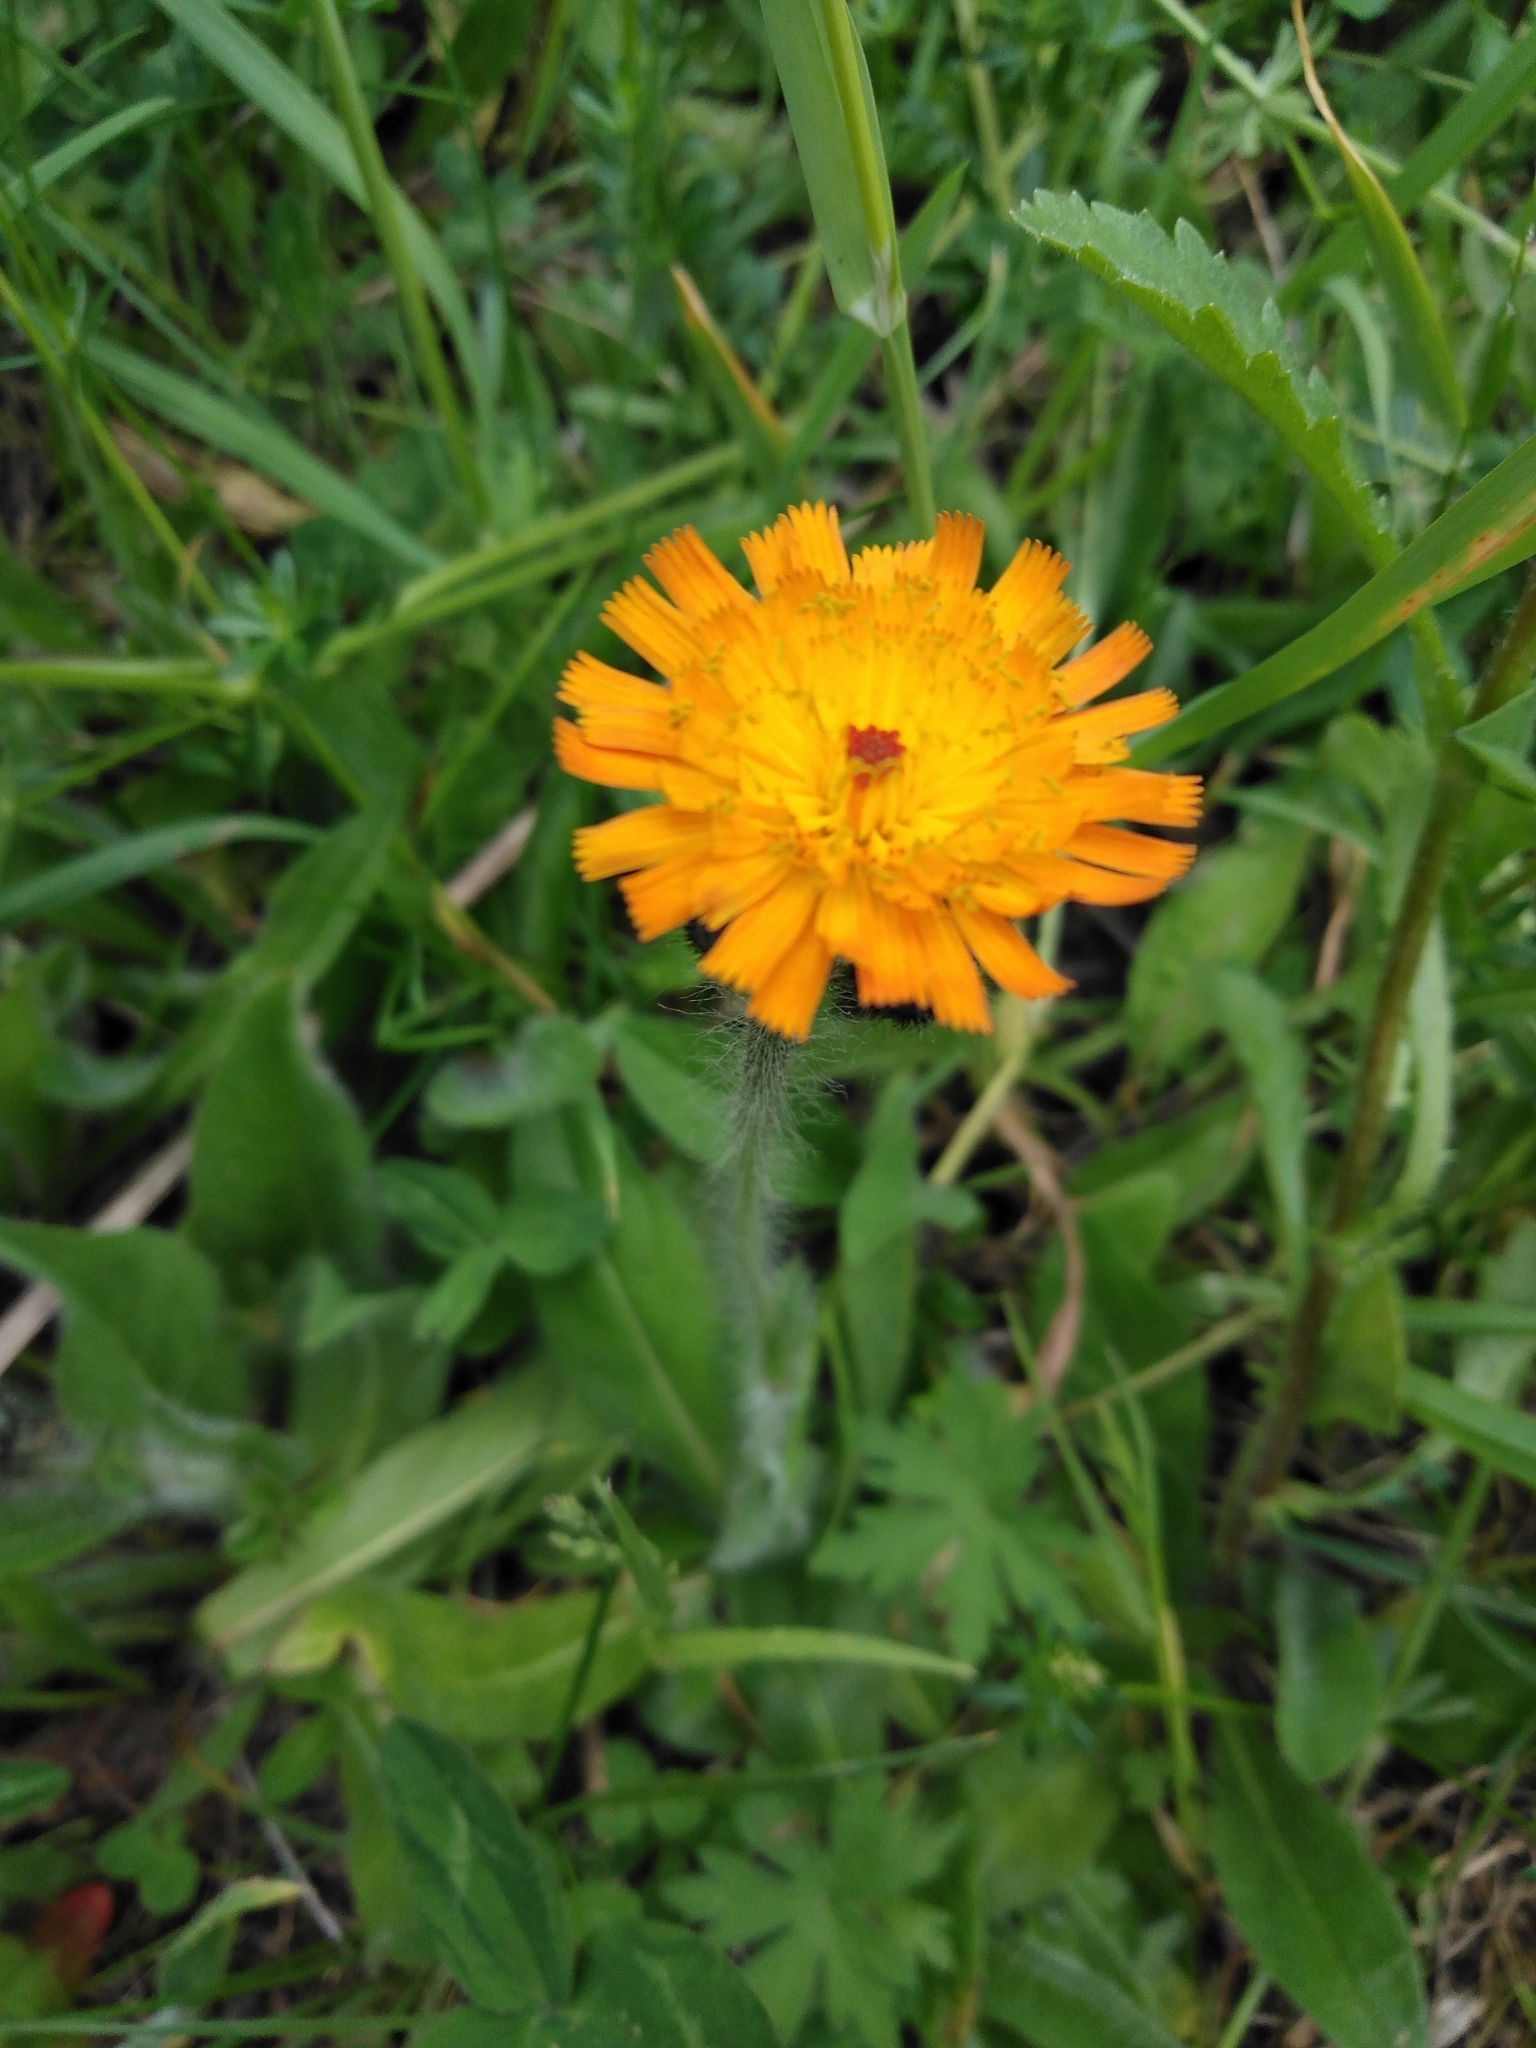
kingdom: Plantae
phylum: Tracheophyta
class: Magnoliopsida
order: Asterales
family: Asteraceae
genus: Pilosella
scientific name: Pilosella aurantiaca
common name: Fox-and-cubs
